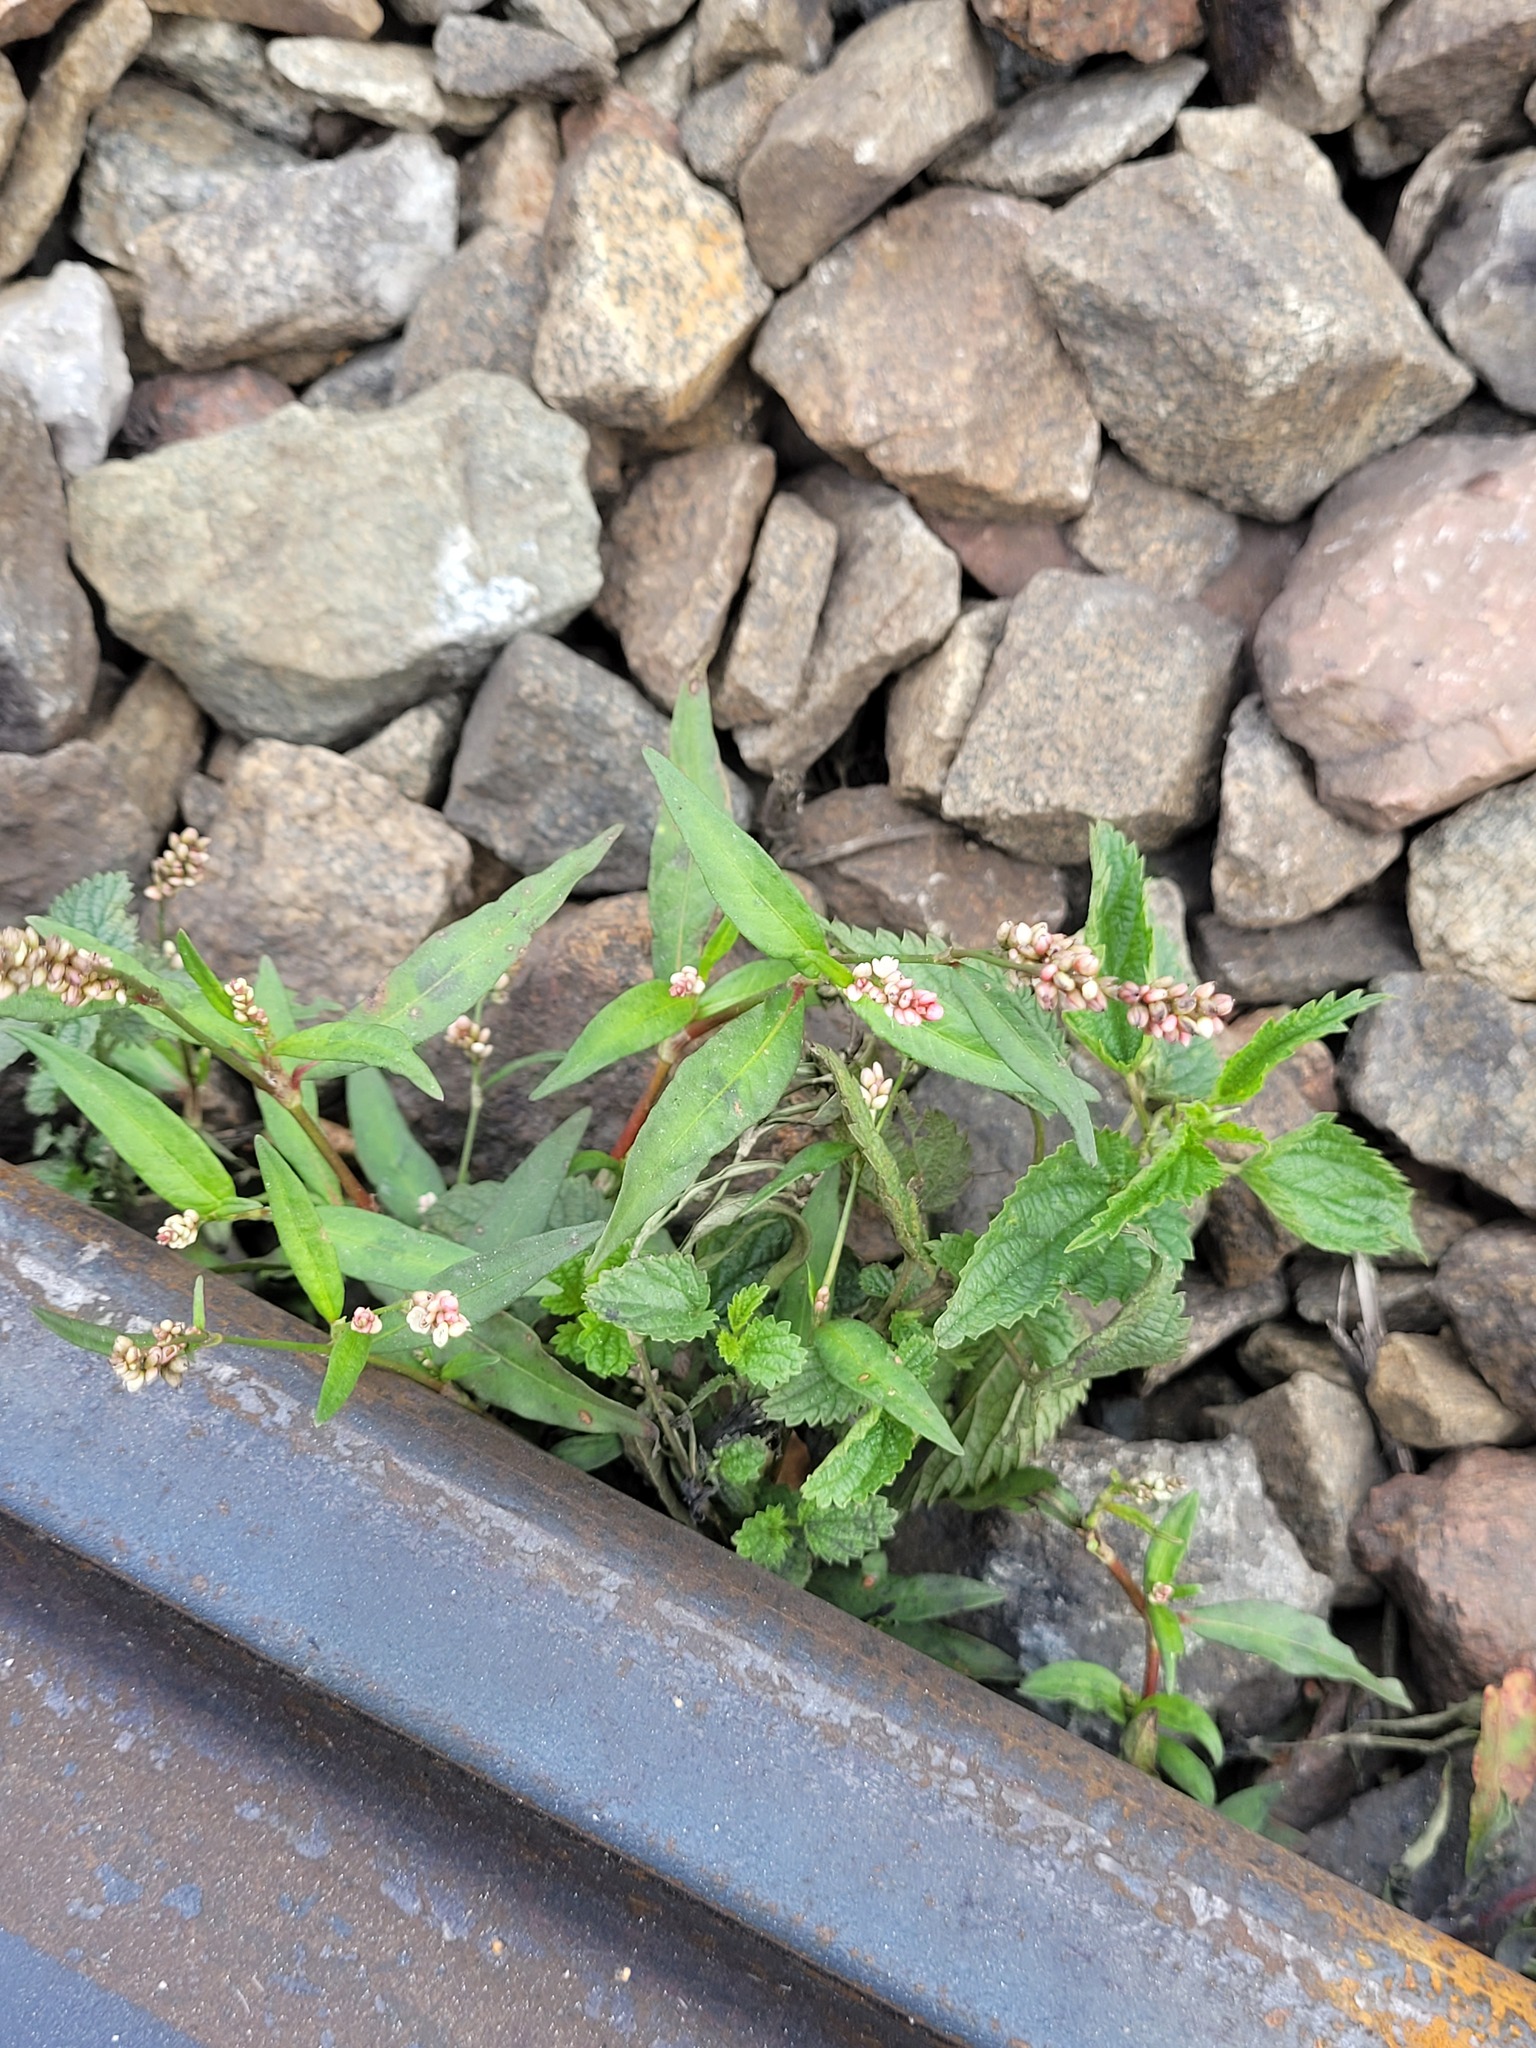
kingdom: Plantae
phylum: Tracheophyta
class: Magnoliopsida
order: Caryophyllales
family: Polygonaceae
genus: Persicaria
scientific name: Persicaria maculosa
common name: Redshank
